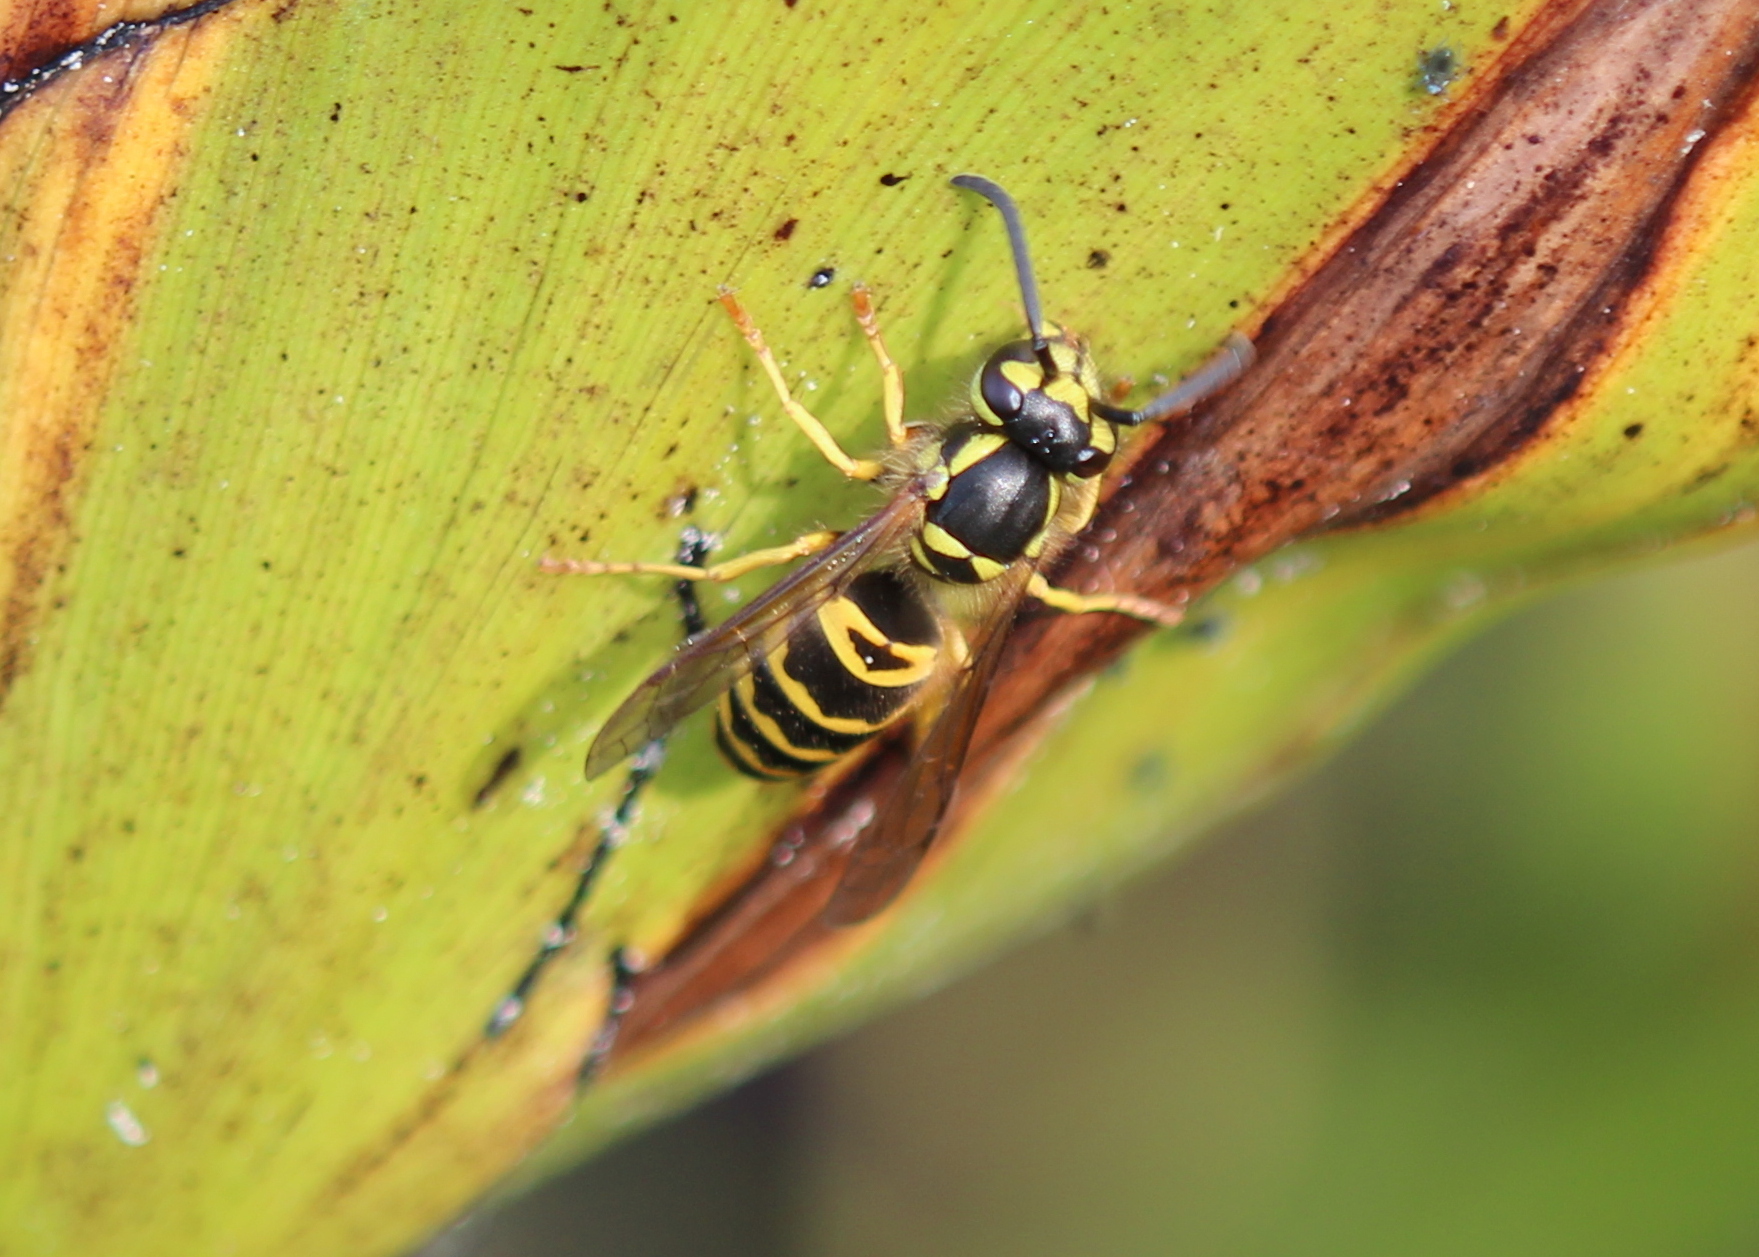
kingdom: Animalia
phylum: Arthropoda
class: Insecta
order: Hymenoptera
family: Vespidae
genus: Vespula
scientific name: Vespula maculifrons
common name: Eastern yellowjacket
